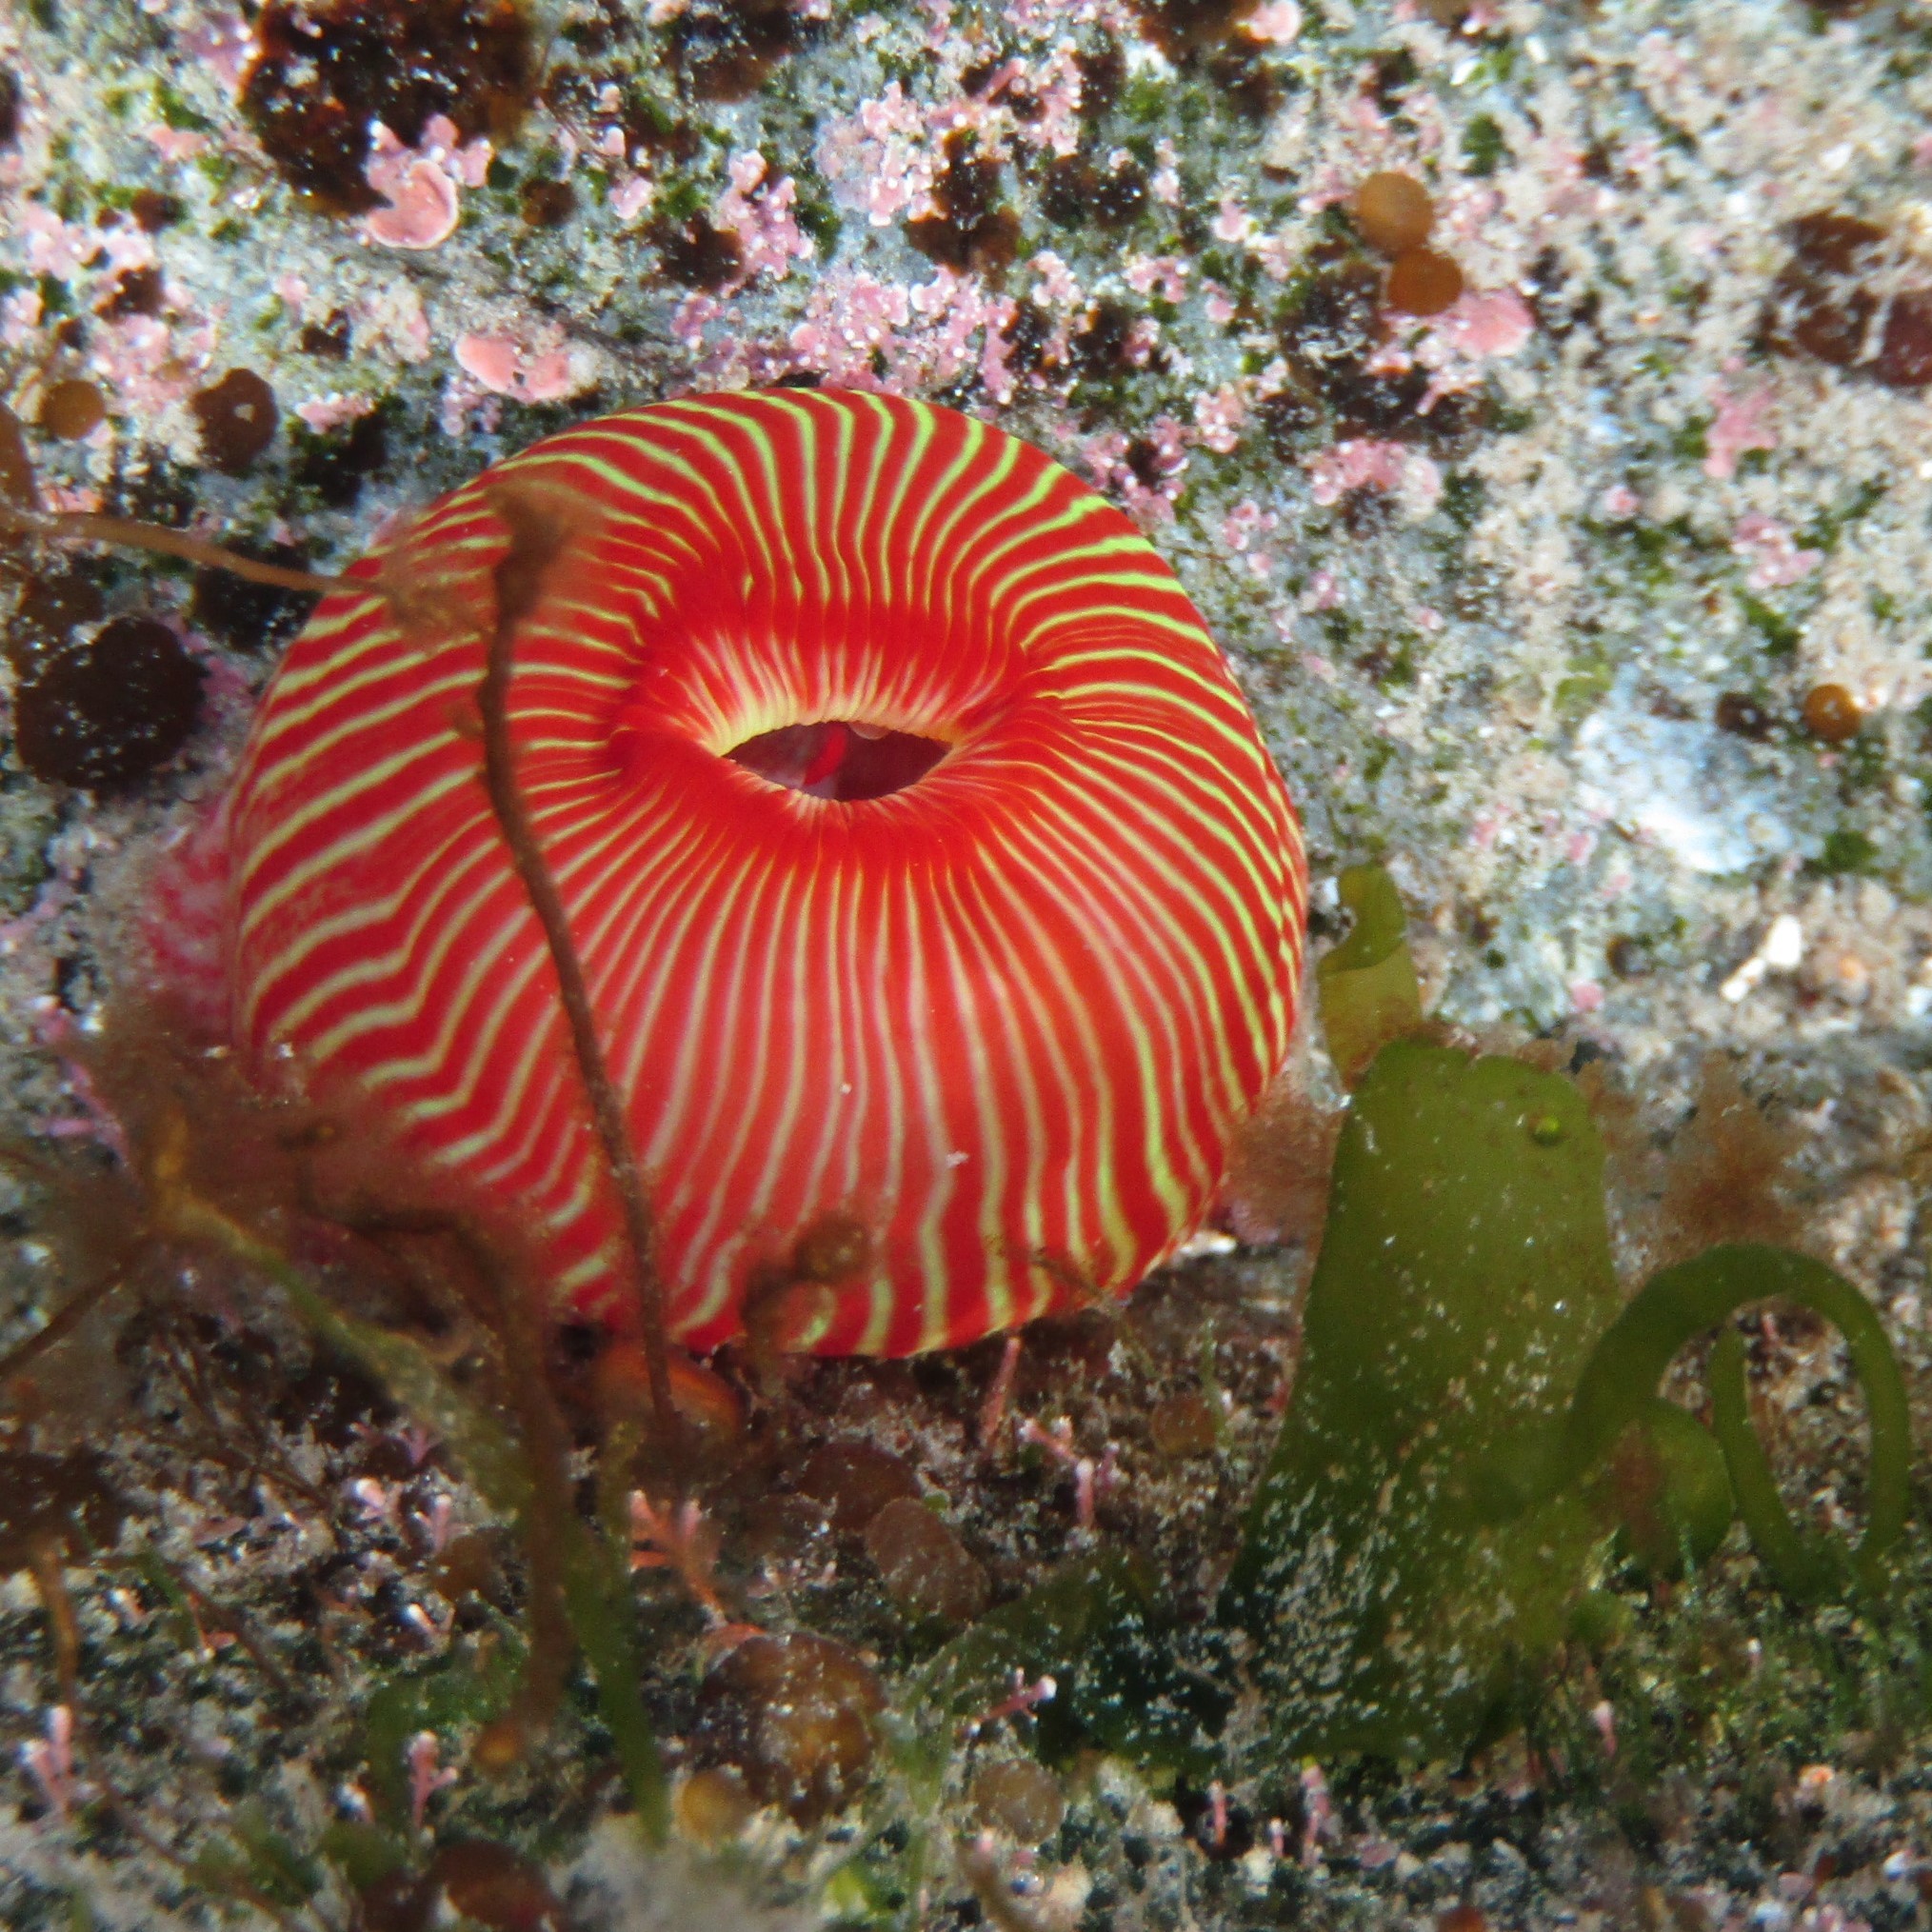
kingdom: Animalia
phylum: Cnidaria
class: Anthozoa
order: Actiniaria
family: Actiniidae
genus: Epiactis
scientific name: Epiactis thompsoni
